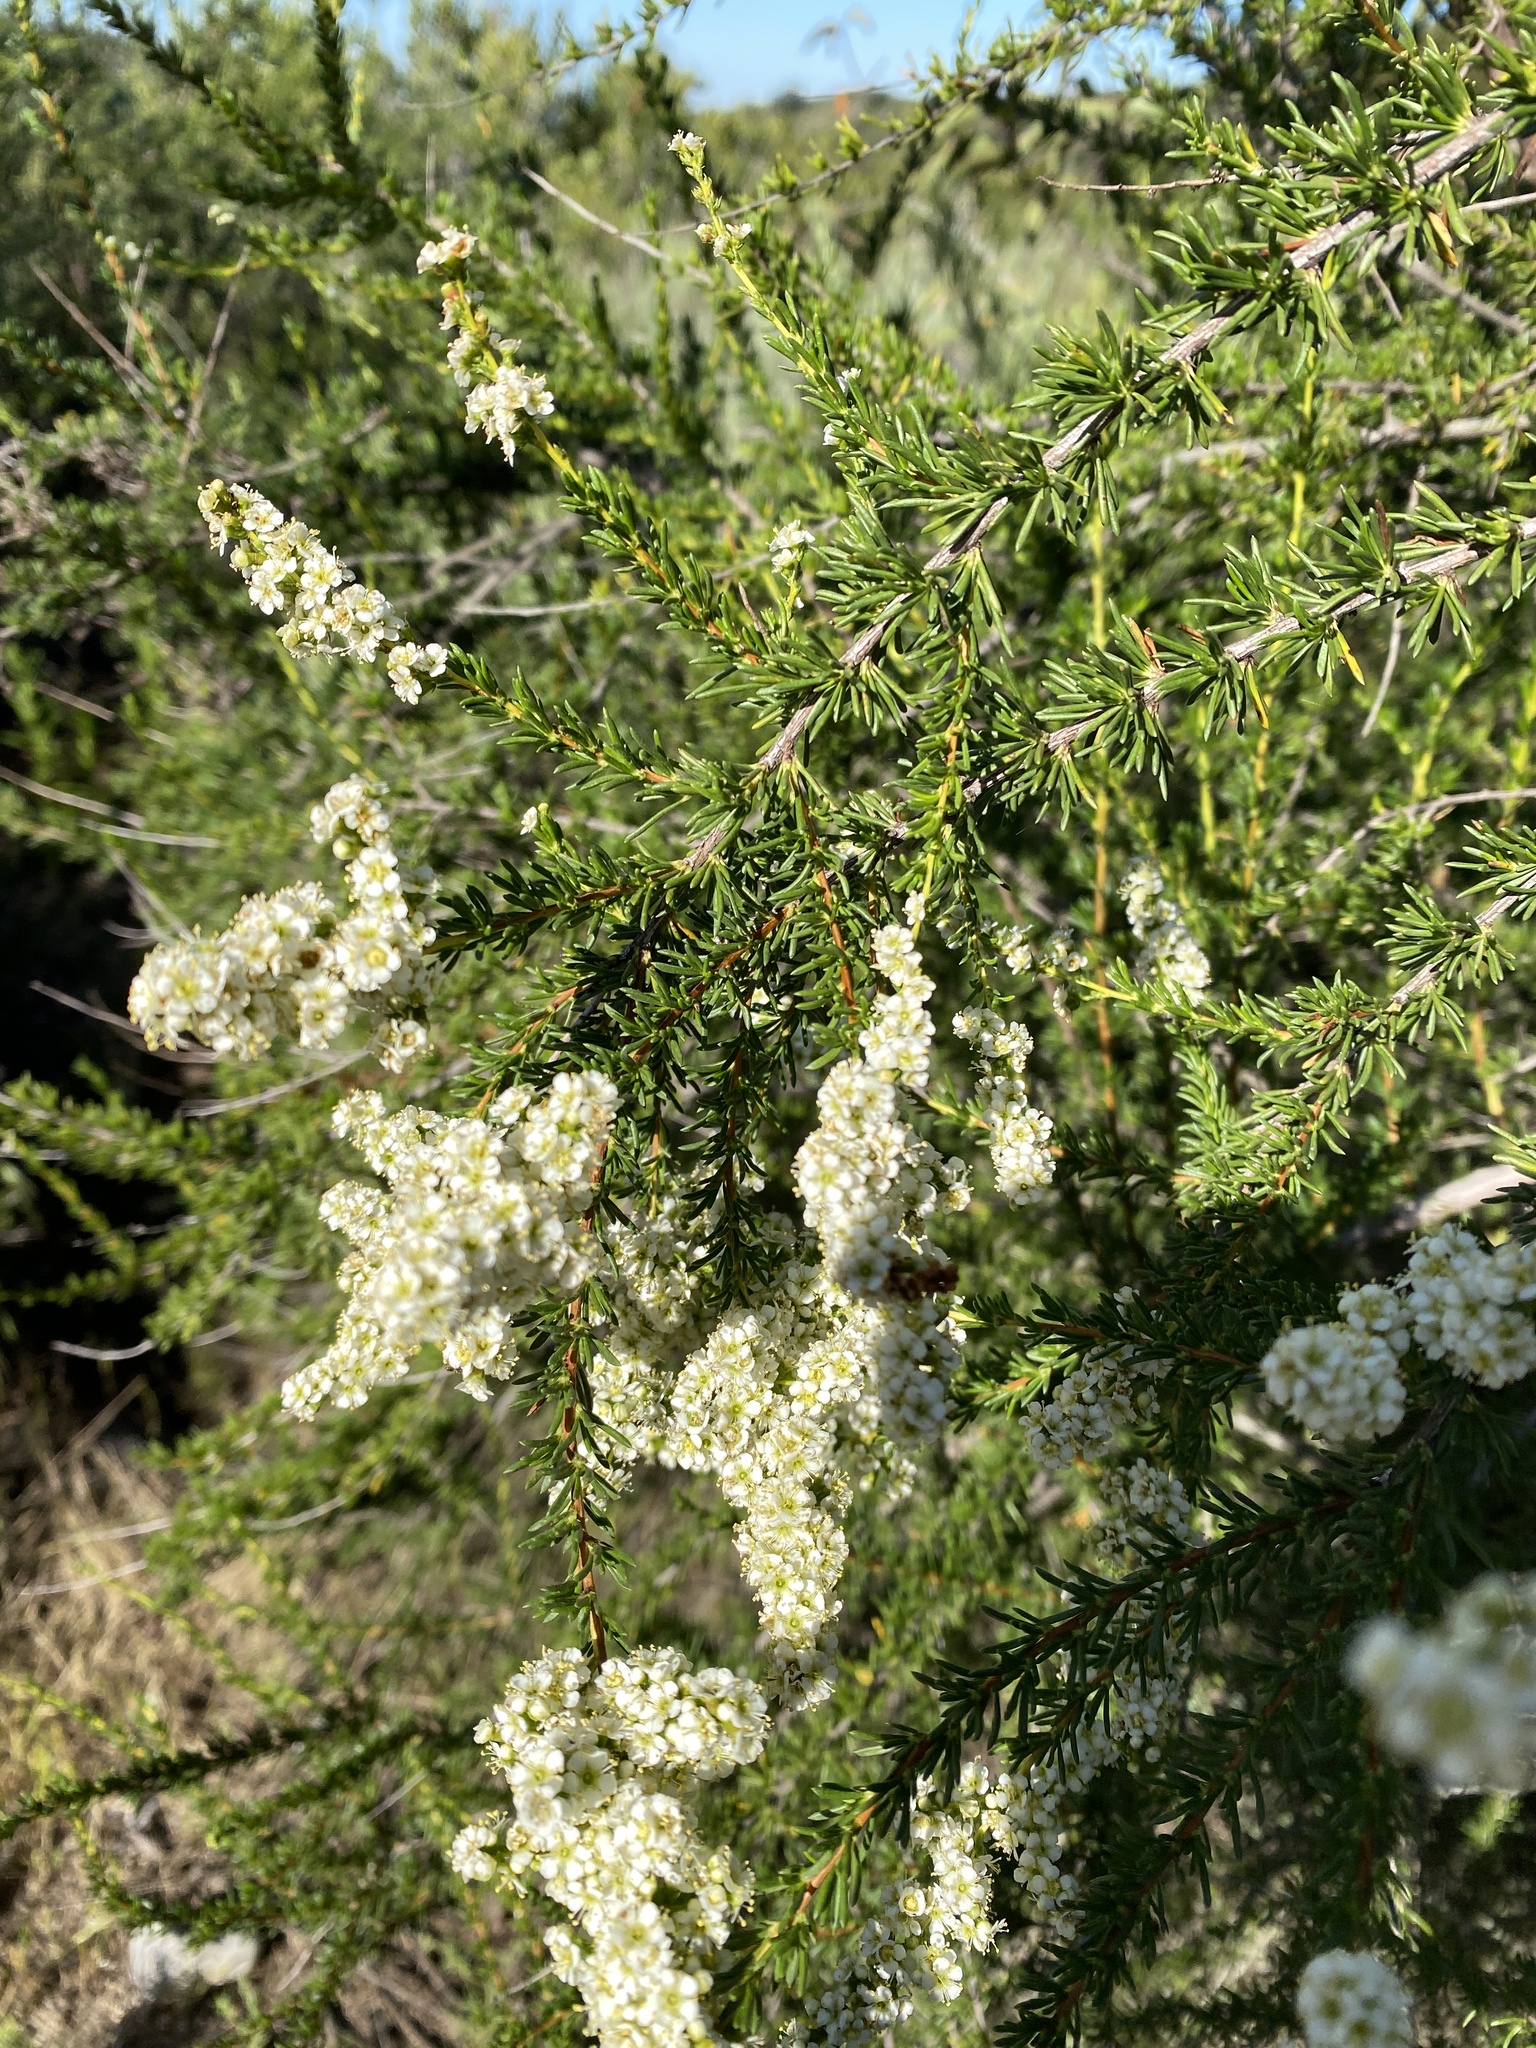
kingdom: Plantae
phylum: Tracheophyta
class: Magnoliopsida
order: Rosales
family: Rosaceae
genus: Adenostoma
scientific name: Adenostoma fasciculatum
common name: Chamise
